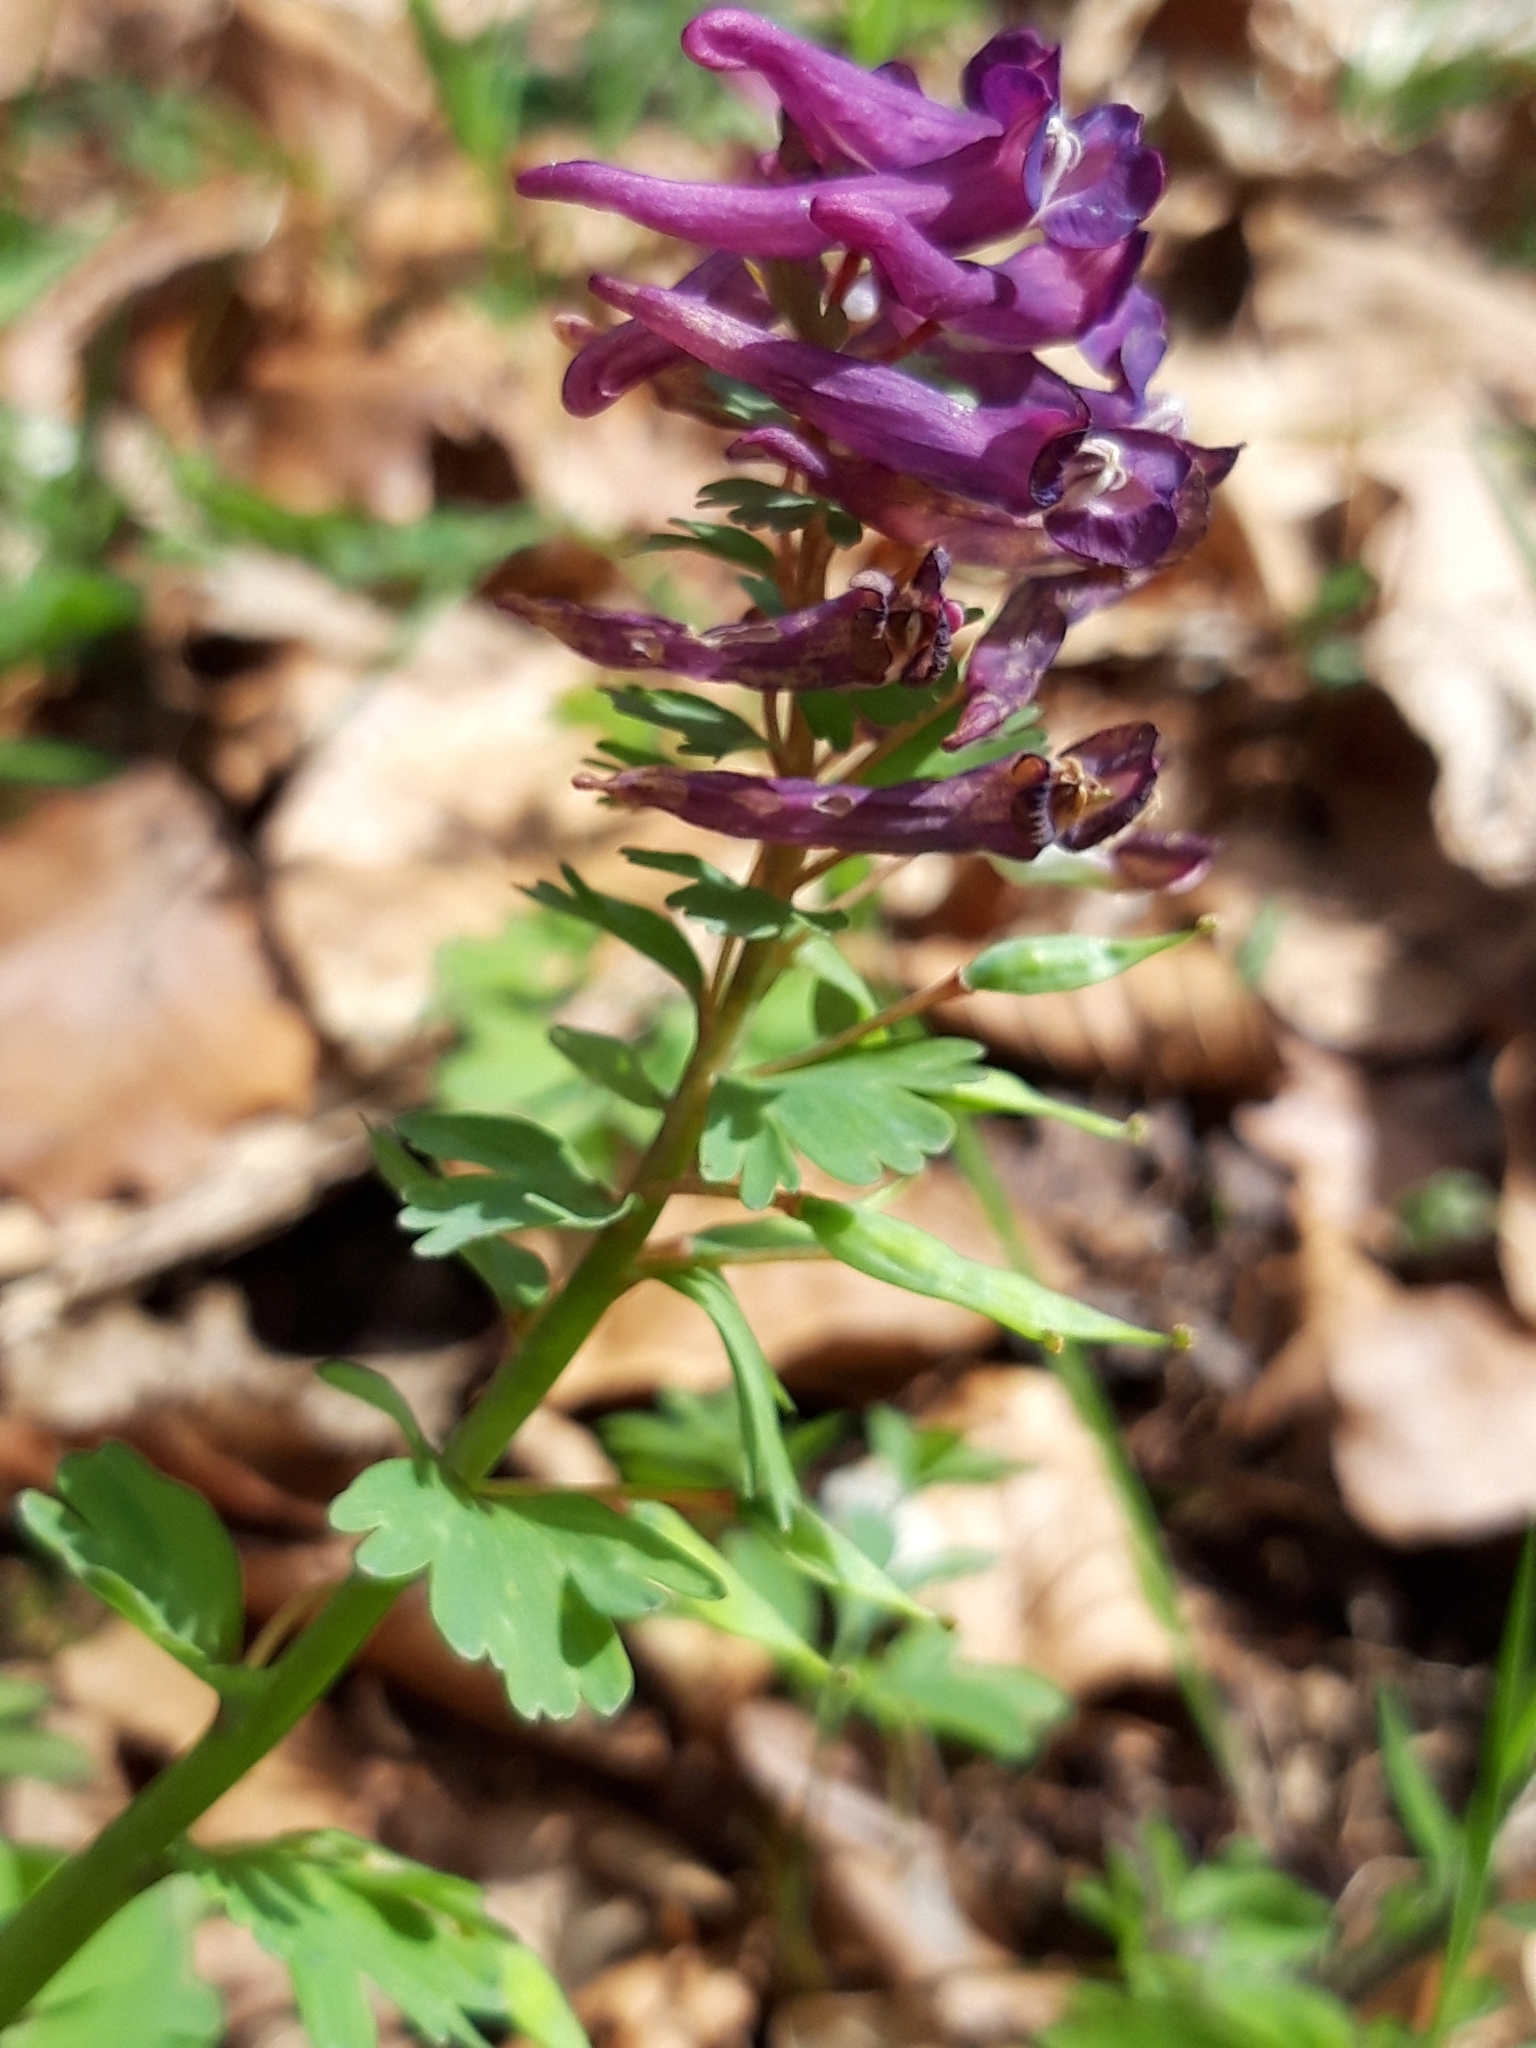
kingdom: Plantae
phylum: Tracheophyta
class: Magnoliopsida
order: Ranunculales
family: Papaveraceae
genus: Corydalis
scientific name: Corydalis solida
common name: Bird-in-a-bush
